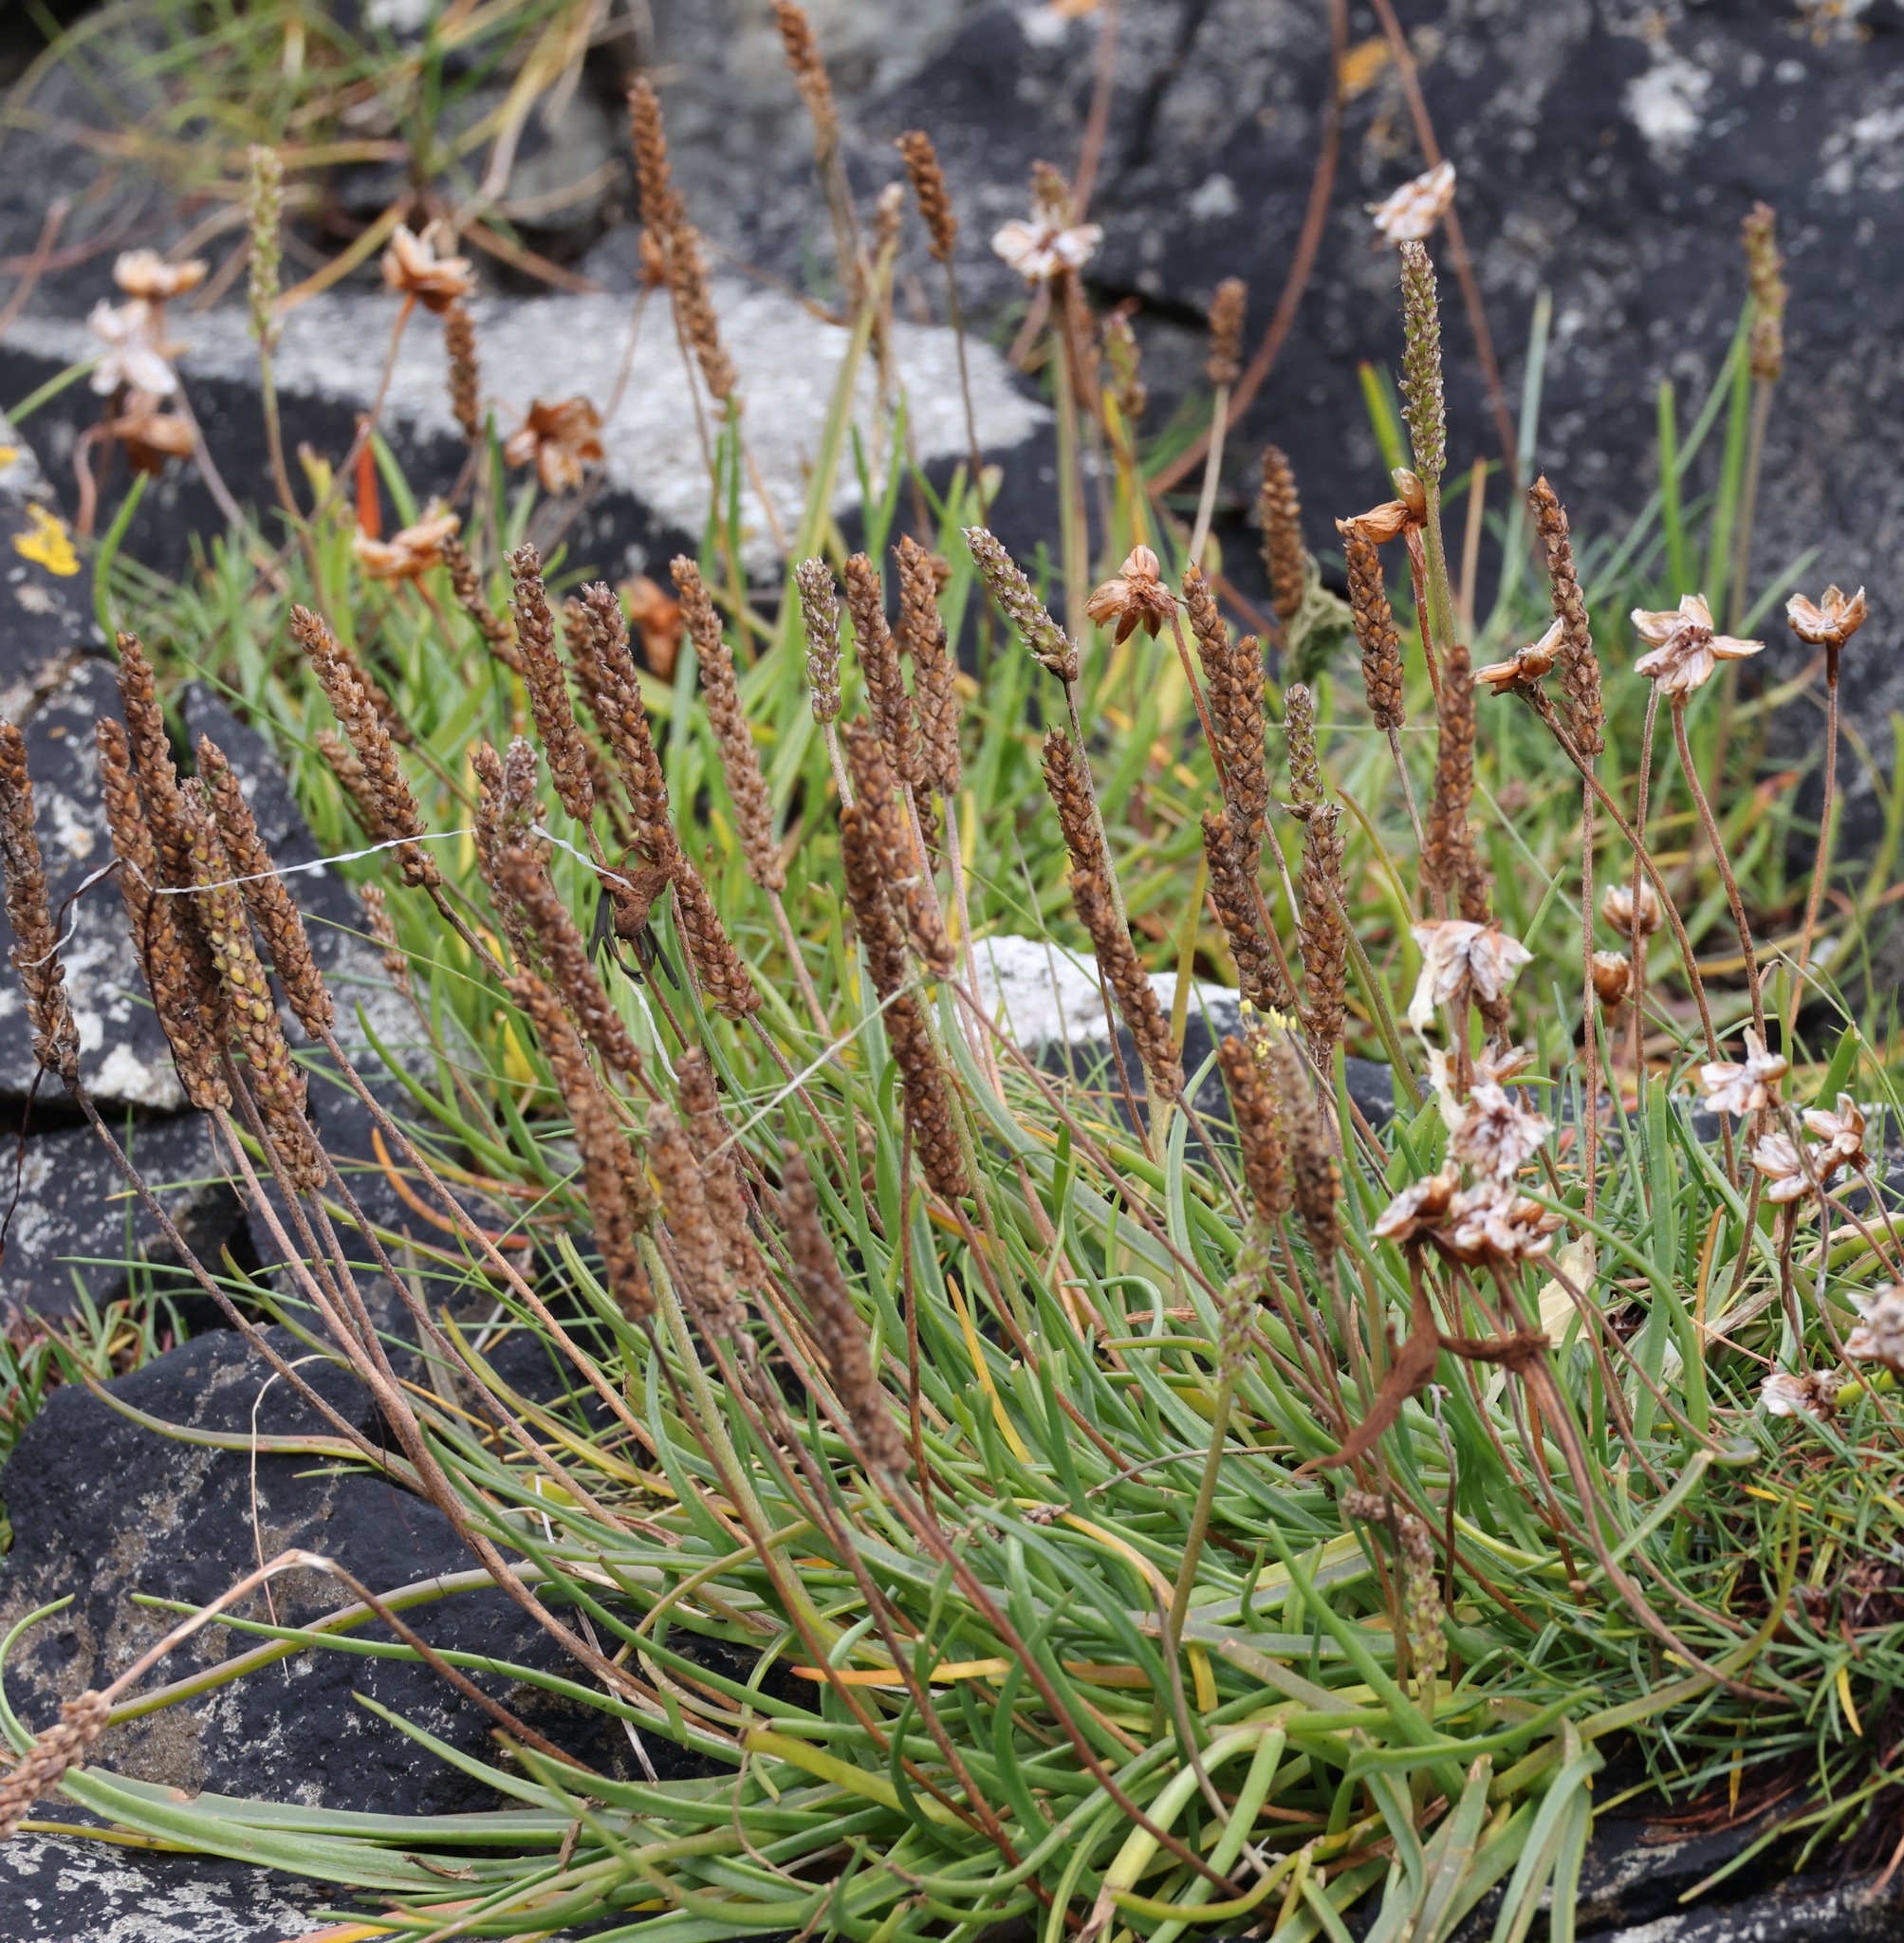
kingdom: Plantae
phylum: Tracheophyta
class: Magnoliopsida
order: Lamiales
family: Plantaginaceae
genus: Plantago
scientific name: Plantago maritima
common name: Sea plantain
